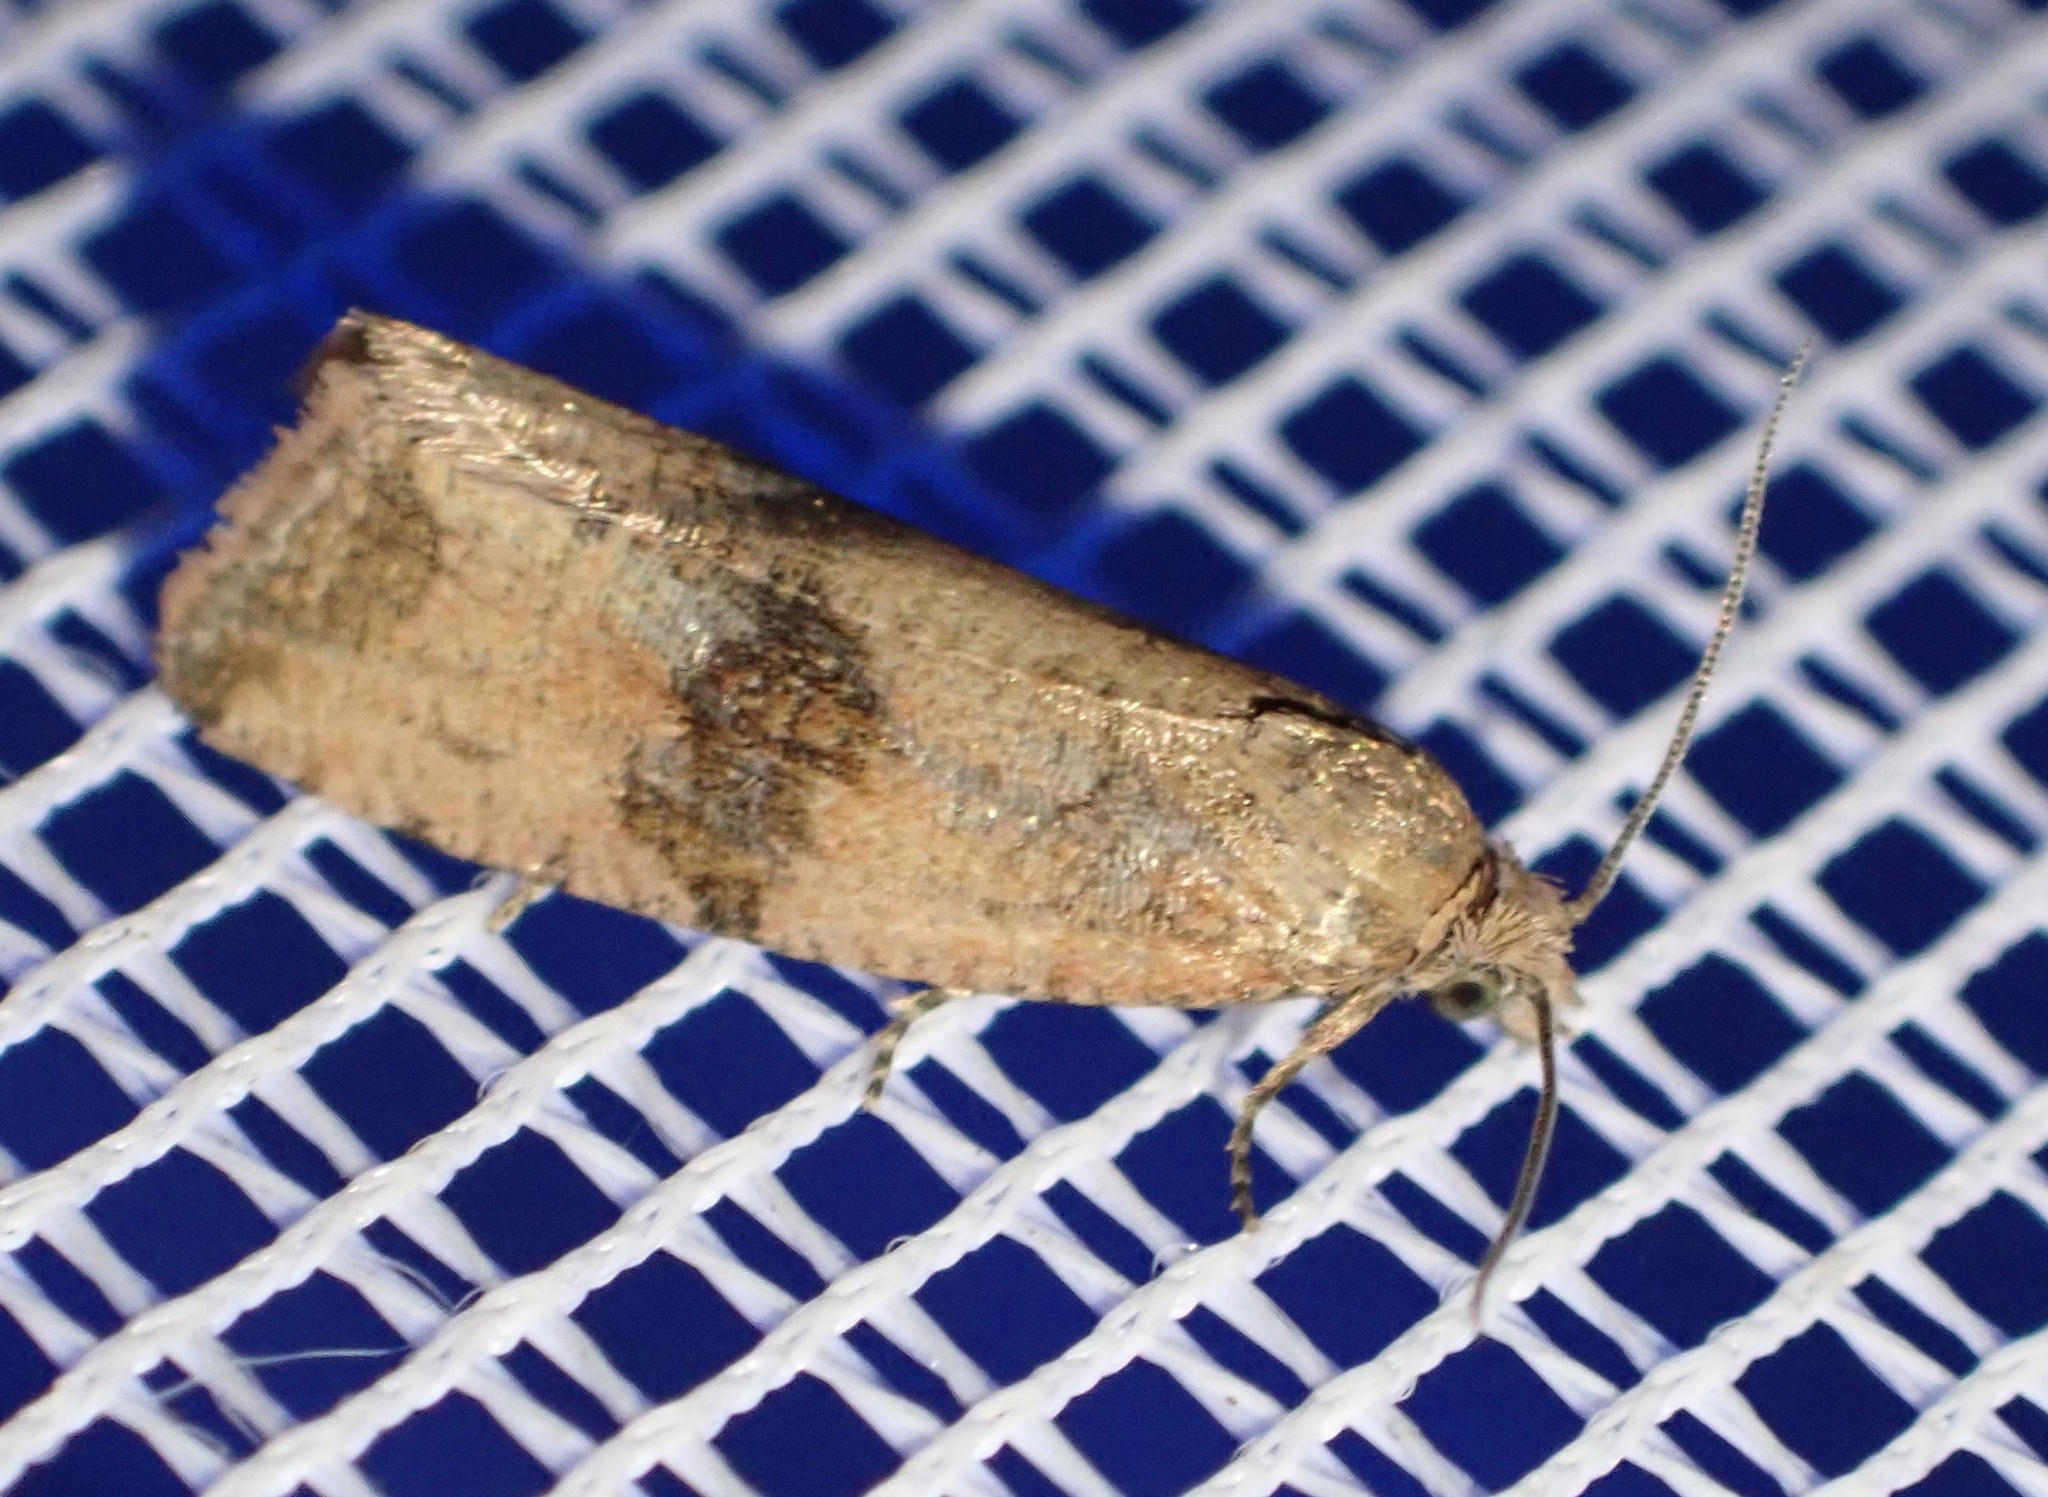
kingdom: Animalia
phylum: Arthropoda
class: Insecta
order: Lepidoptera
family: Tortricidae
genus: Celypha
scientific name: Celypha striana
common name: Barred marble
